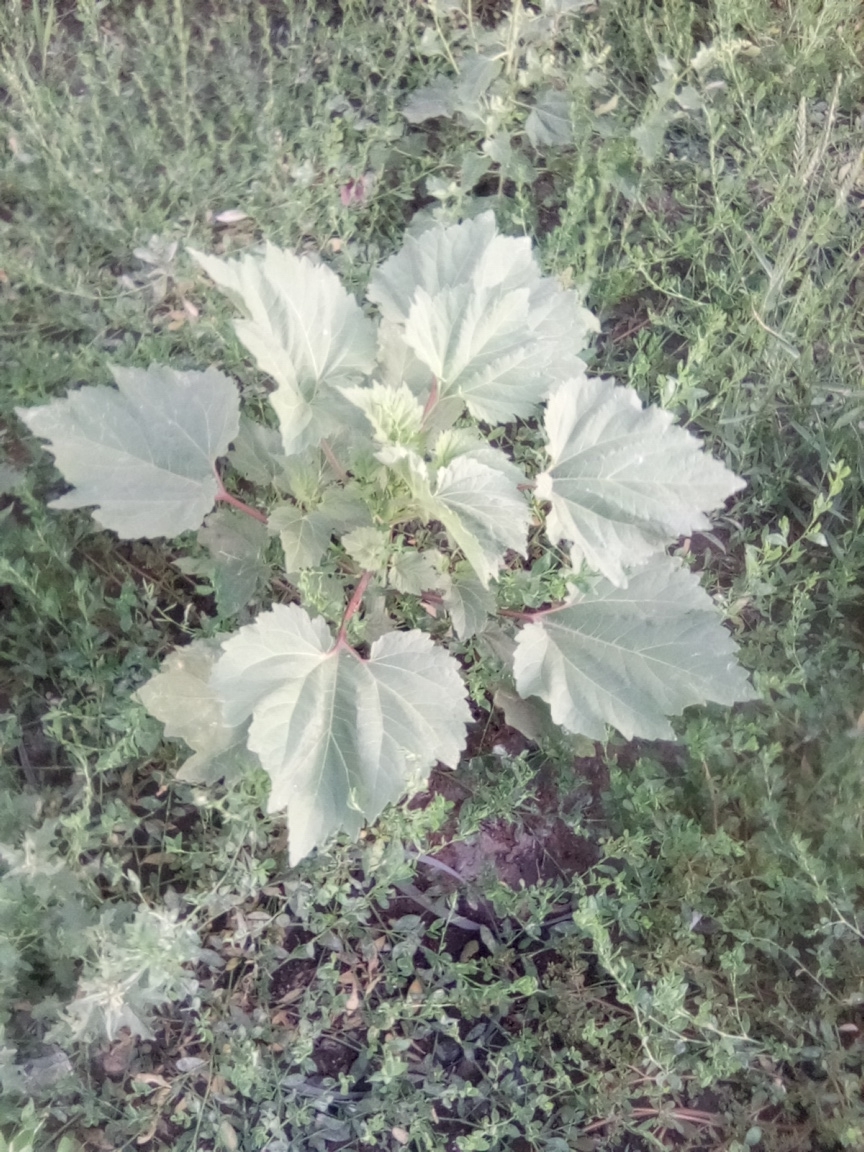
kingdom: Plantae
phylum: Tracheophyta
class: Magnoliopsida
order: Asterales
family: Asteraceae
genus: Cyclachaena
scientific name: Cyclachaena xanthiifolia
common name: Giant sumpweed
